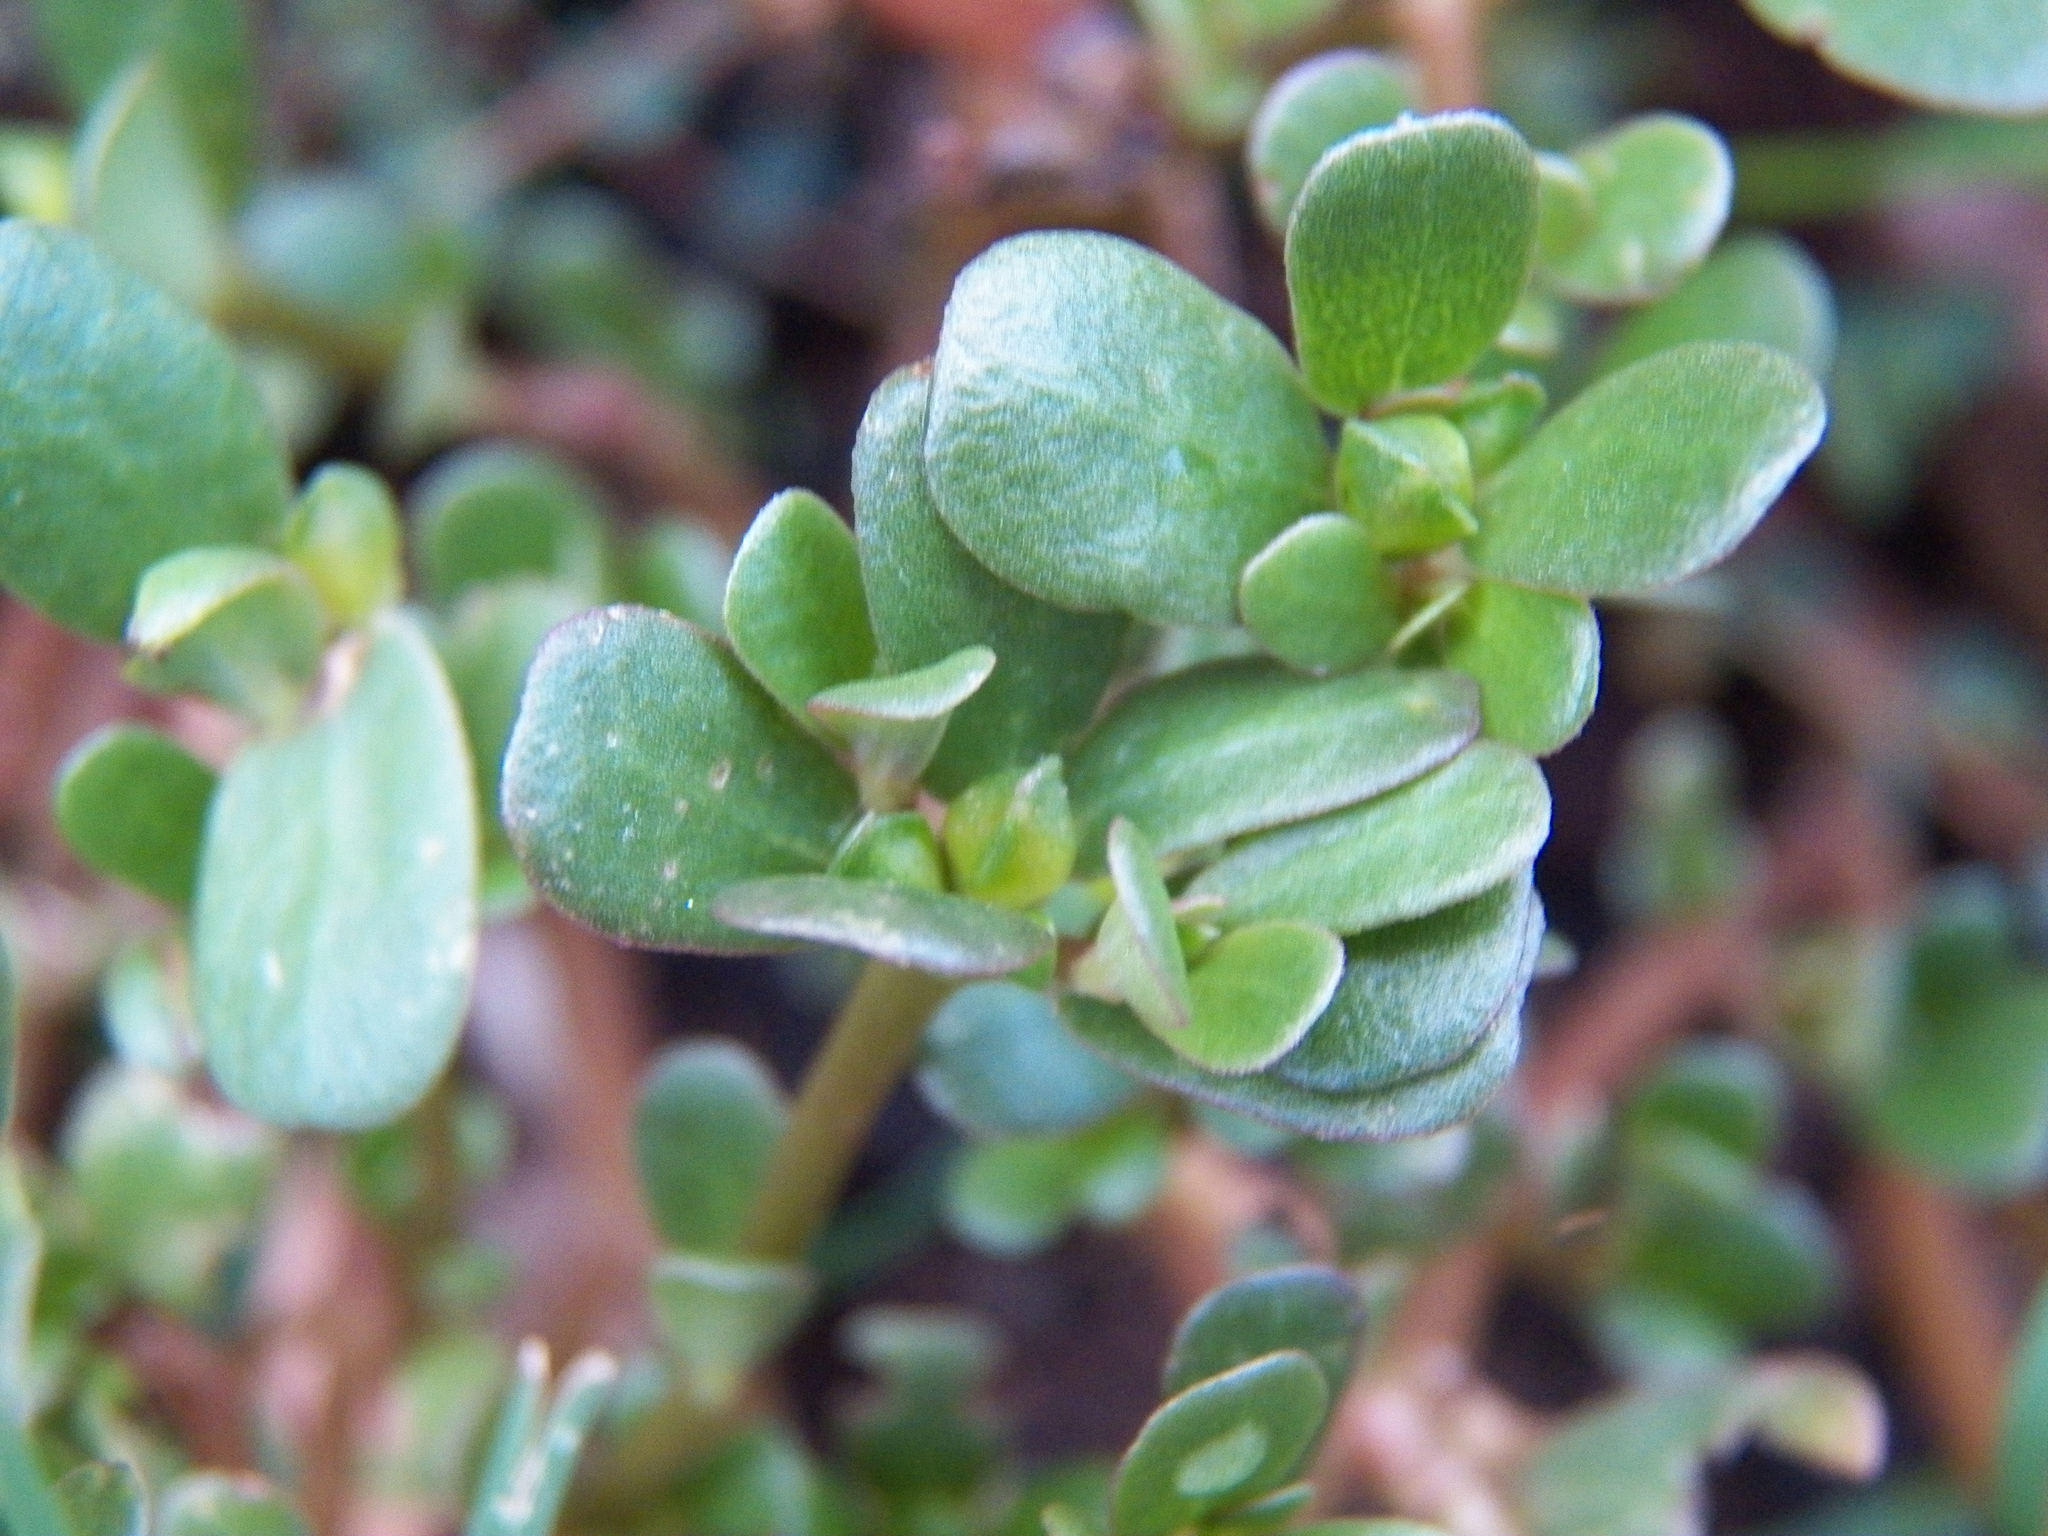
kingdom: Plantae
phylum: Tracheophyta
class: Magnoliopsida
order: Caryophyllales
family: Portulacaceae
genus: Portulaca
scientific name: Portulaca oleracea
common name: Common purslane
